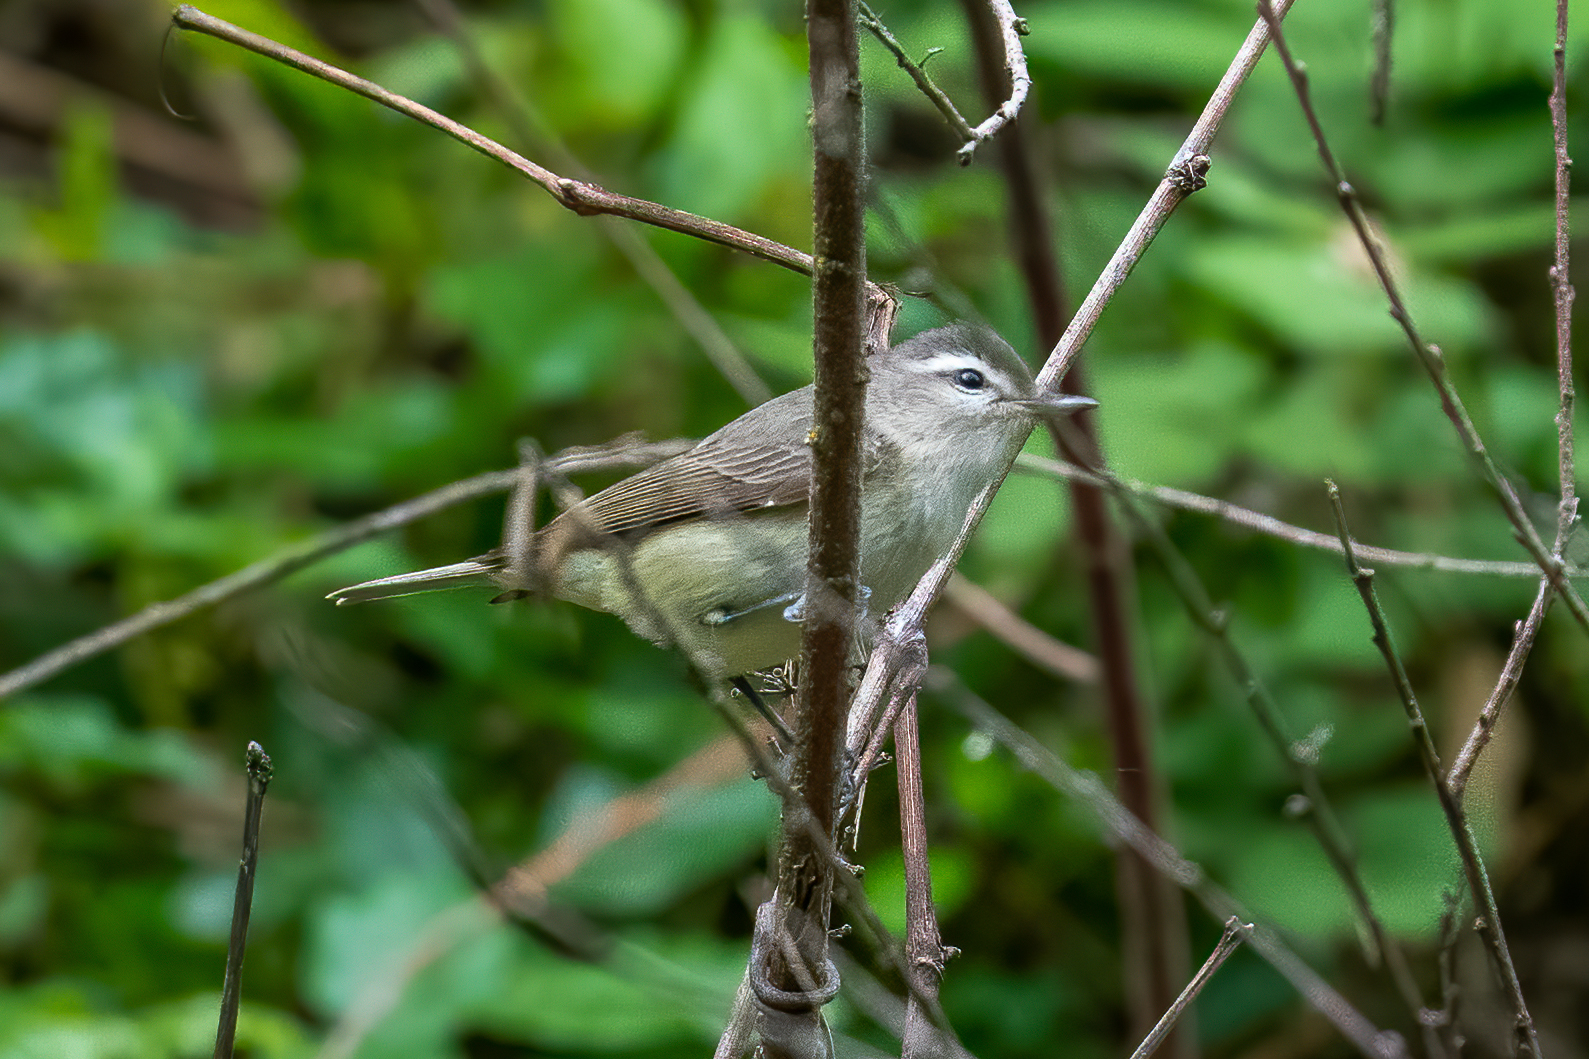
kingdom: Animalia
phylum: Chordata
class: Aves
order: Passeriformes
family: Vireonidae
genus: Vireo
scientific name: Vireo gilvus
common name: Warbling vireo
